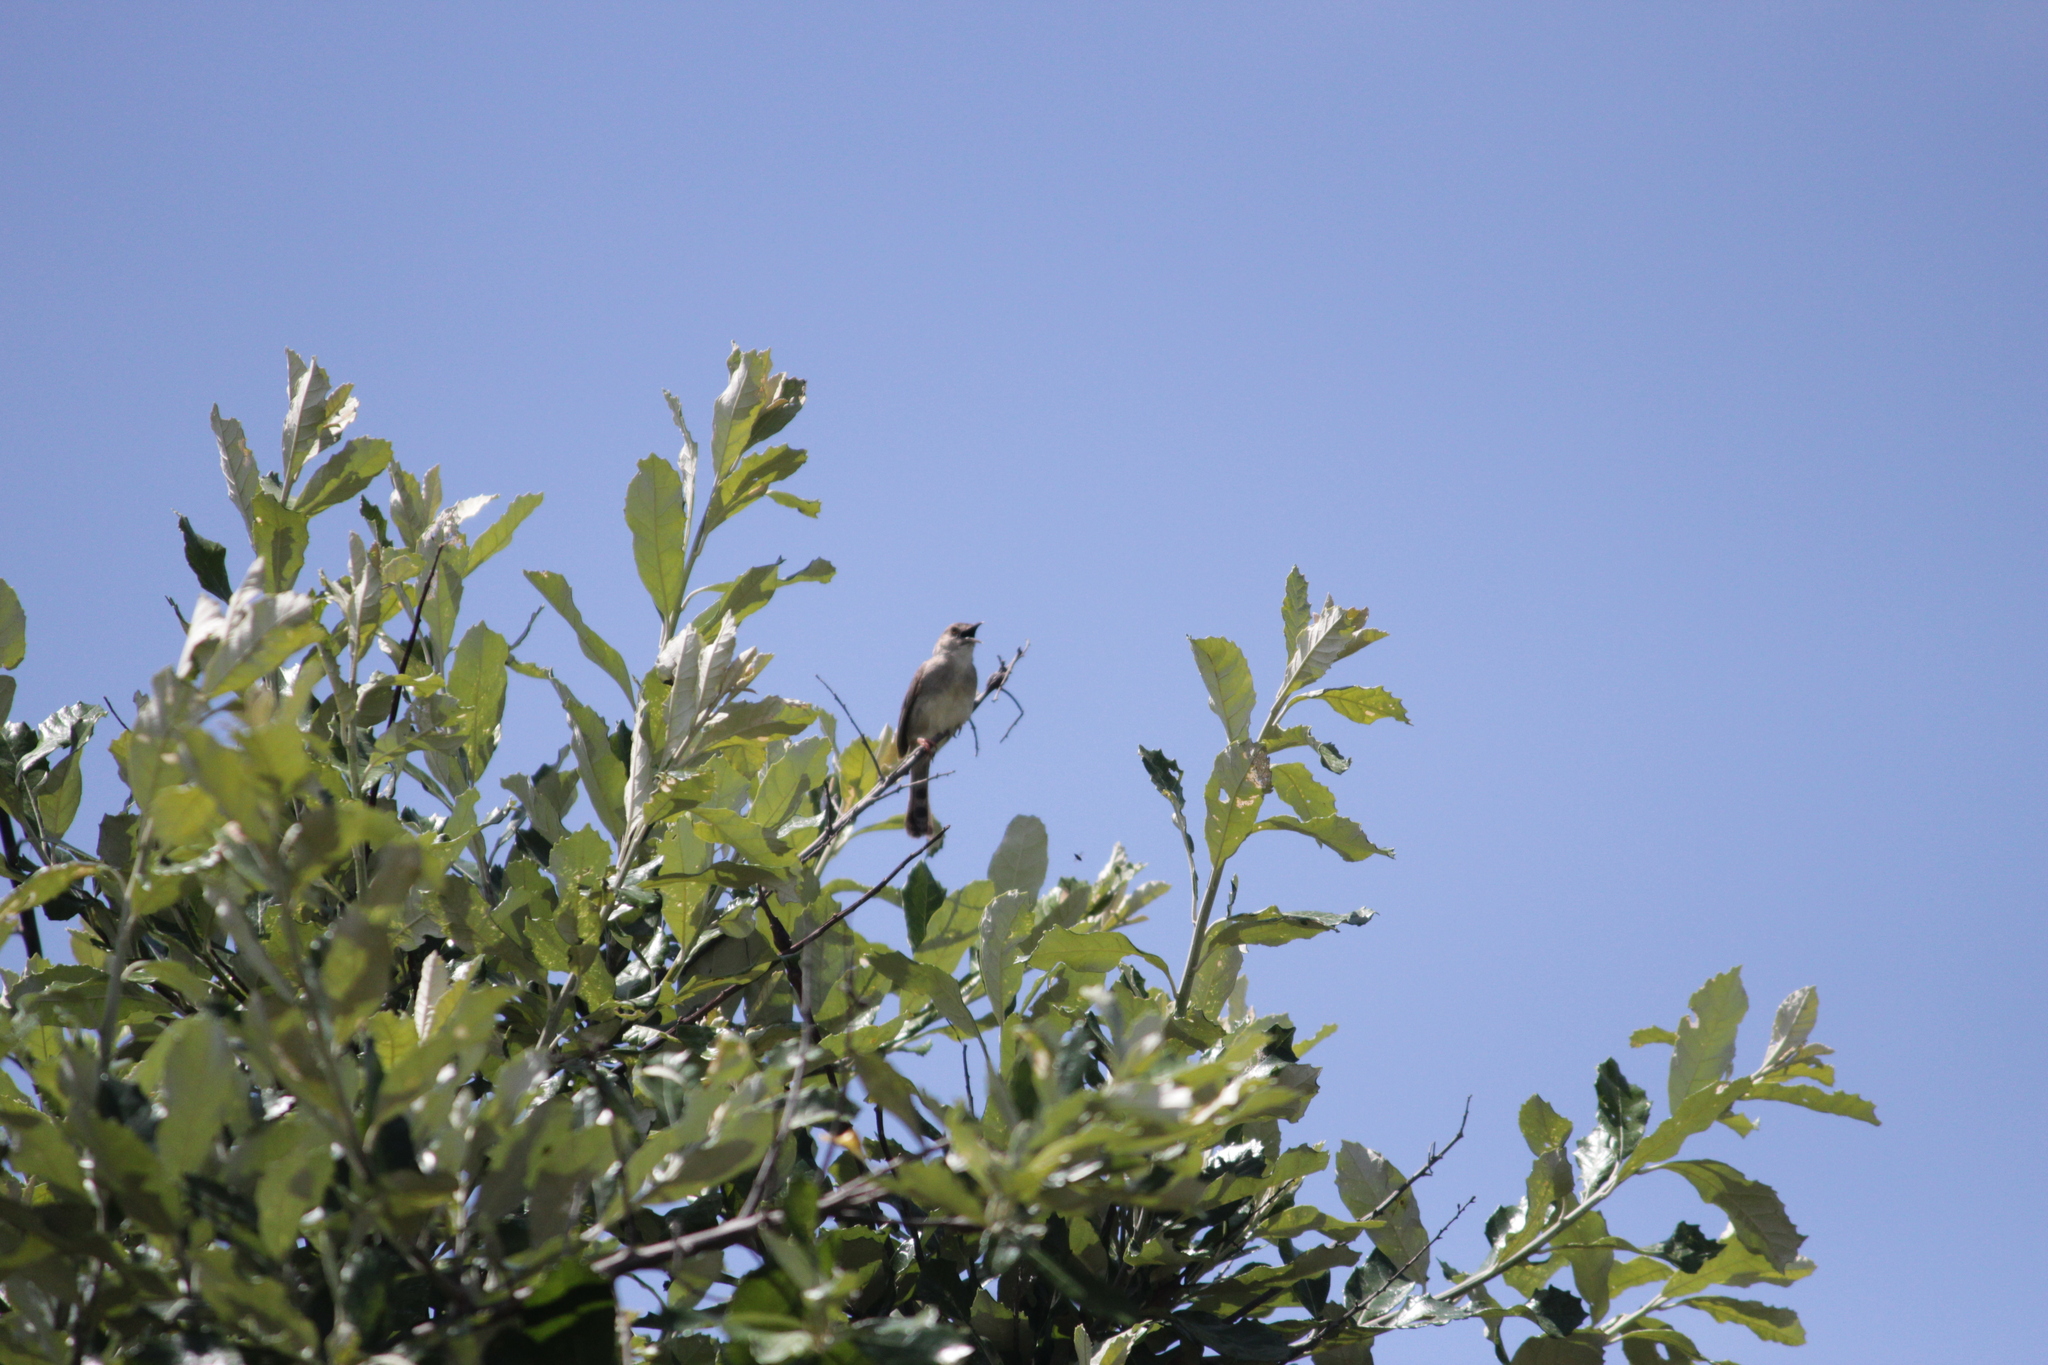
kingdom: Animalia
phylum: Chordata
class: Aves
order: Passeriformes
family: Cisticolidae
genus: Cisticola
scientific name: Cisticola chiniana
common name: Rattling cisticola
